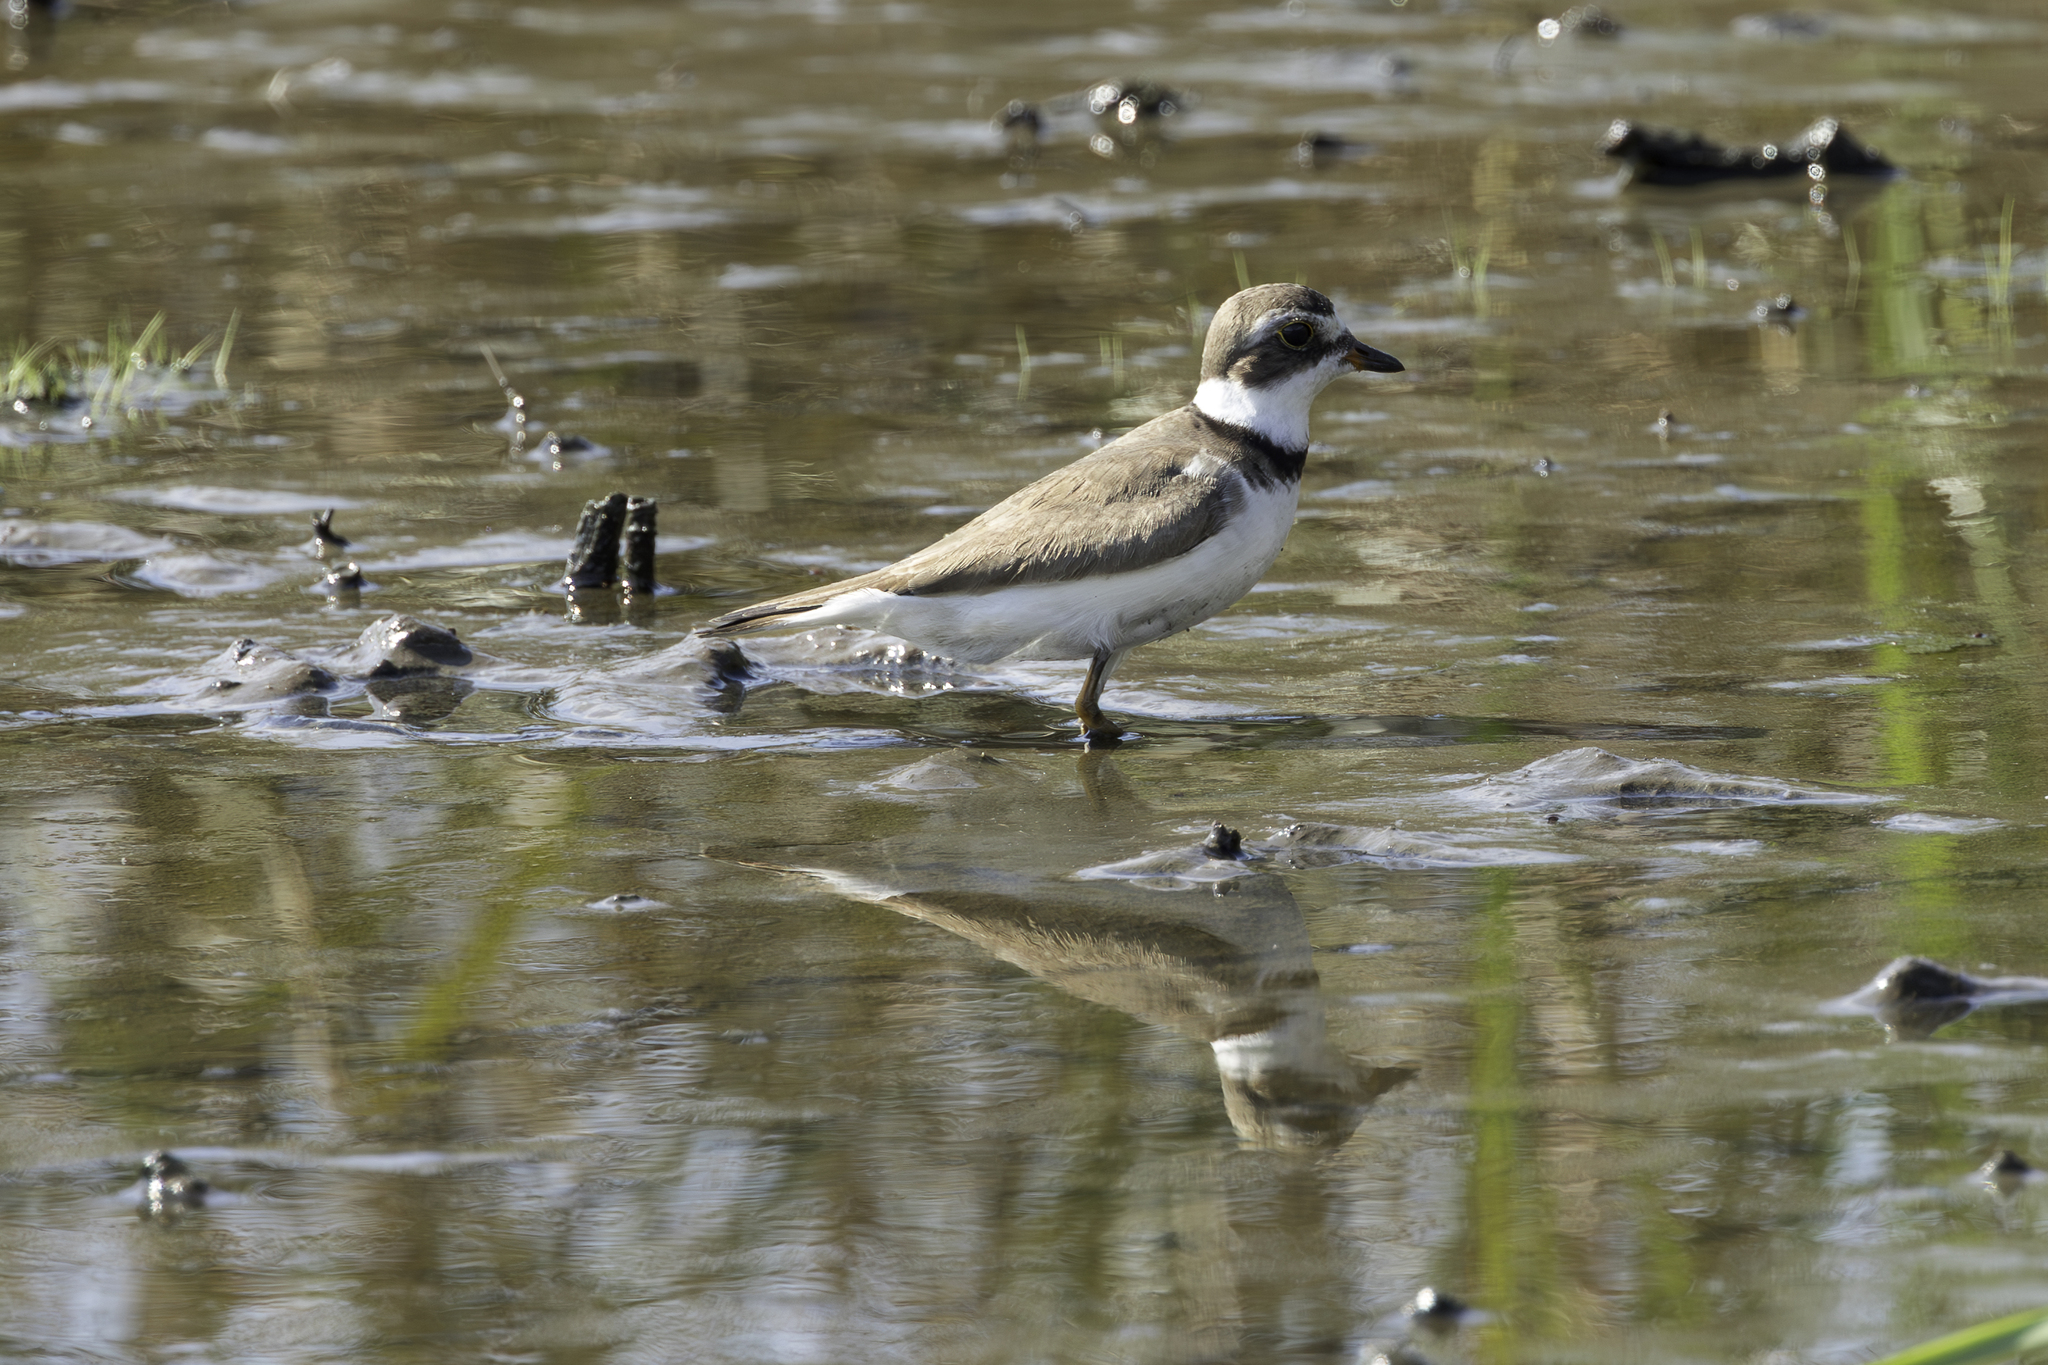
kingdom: Animalia
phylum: Chordata
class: Aves
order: Charadriiformes
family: Charadriidae
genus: Charadrius
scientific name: Charadrius semipalmatus
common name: Semipalmated plover
